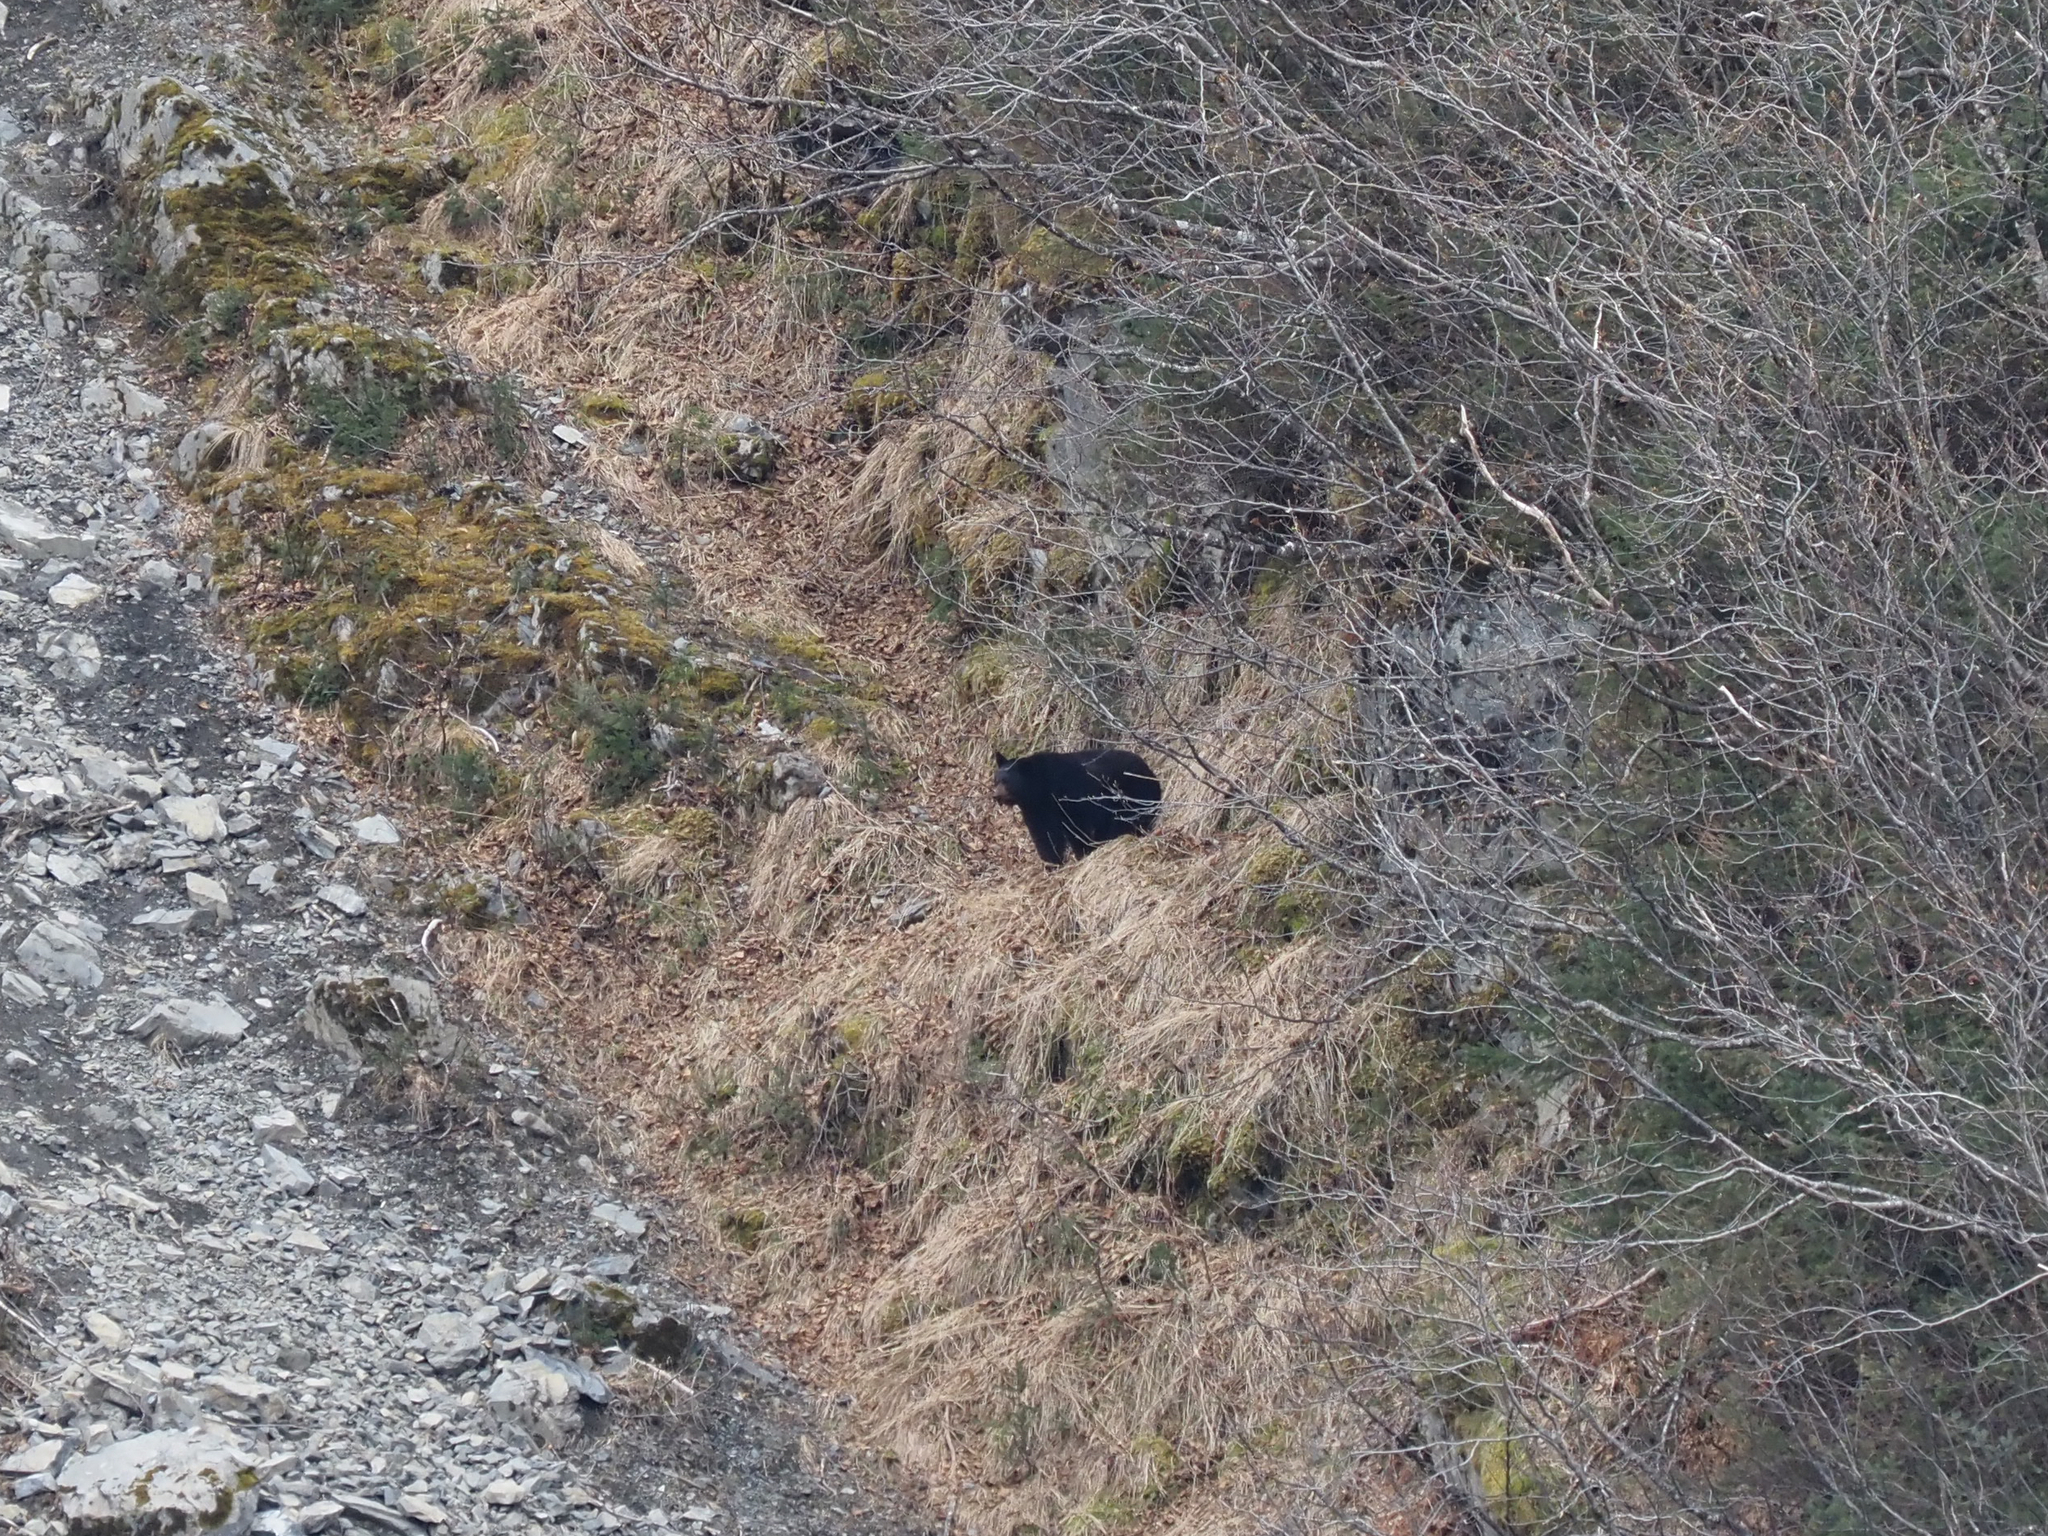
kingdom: Animalia
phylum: Chordata
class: Mammalia
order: Carnivora
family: Ursidae
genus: Ursus
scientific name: Ursus americanus
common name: American black bear
